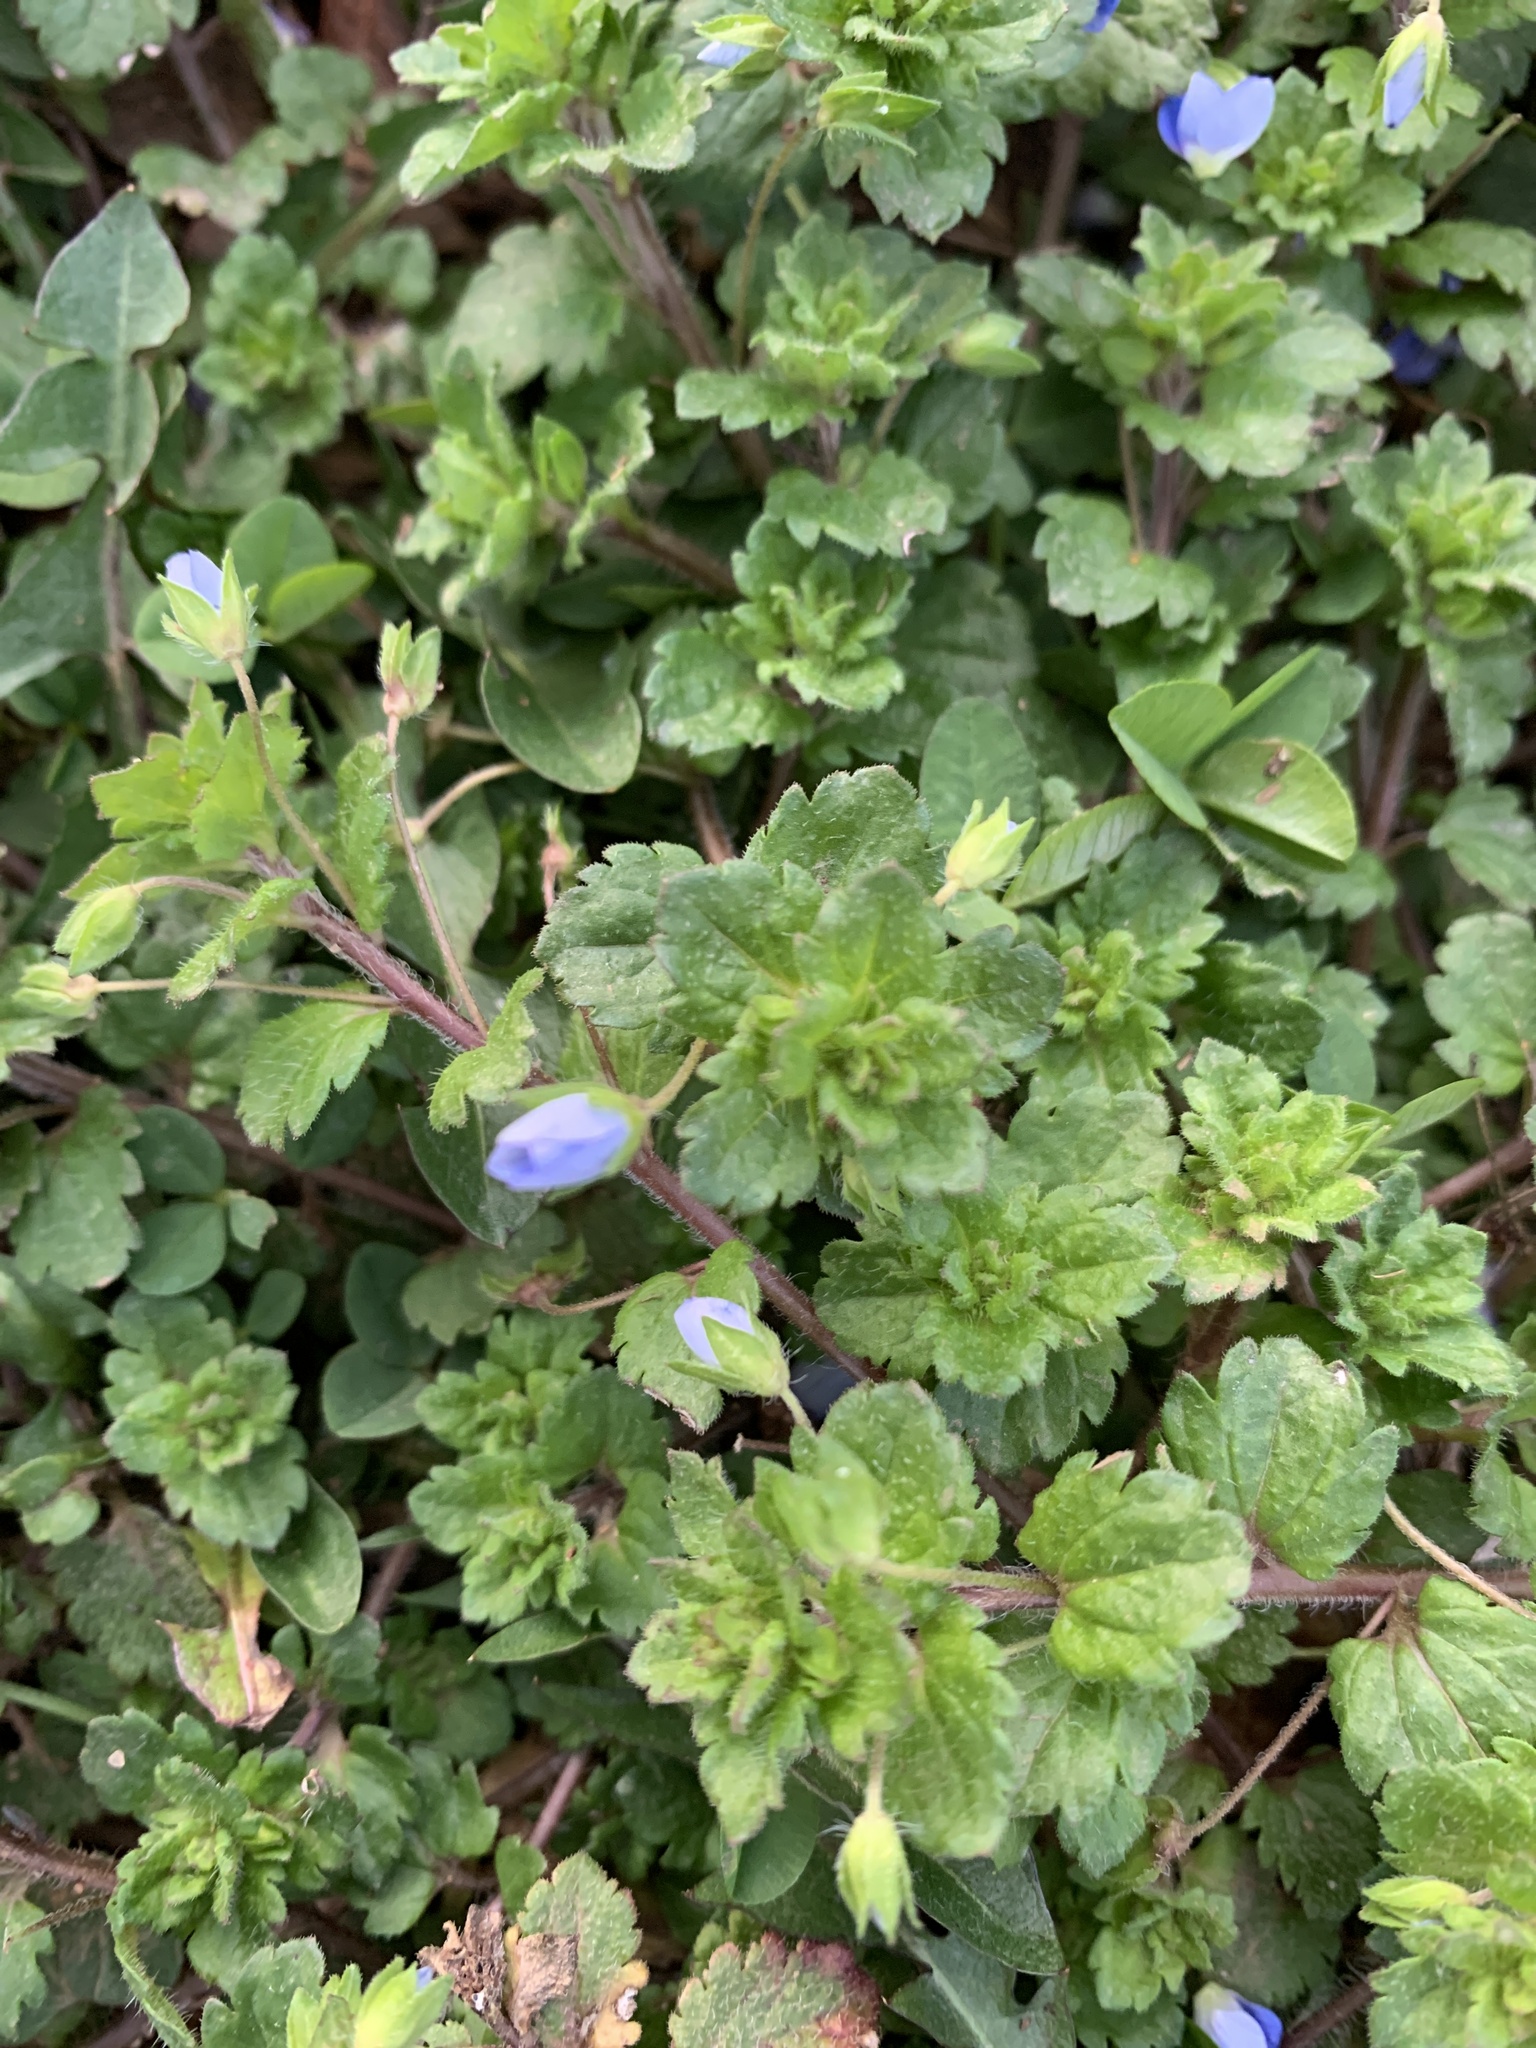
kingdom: Plantae
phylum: Tracheophyta
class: Magnoliopsida
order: Lamiales
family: Plantaginaceae
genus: Veronica
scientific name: Veronica persica
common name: Common field-speedwell
